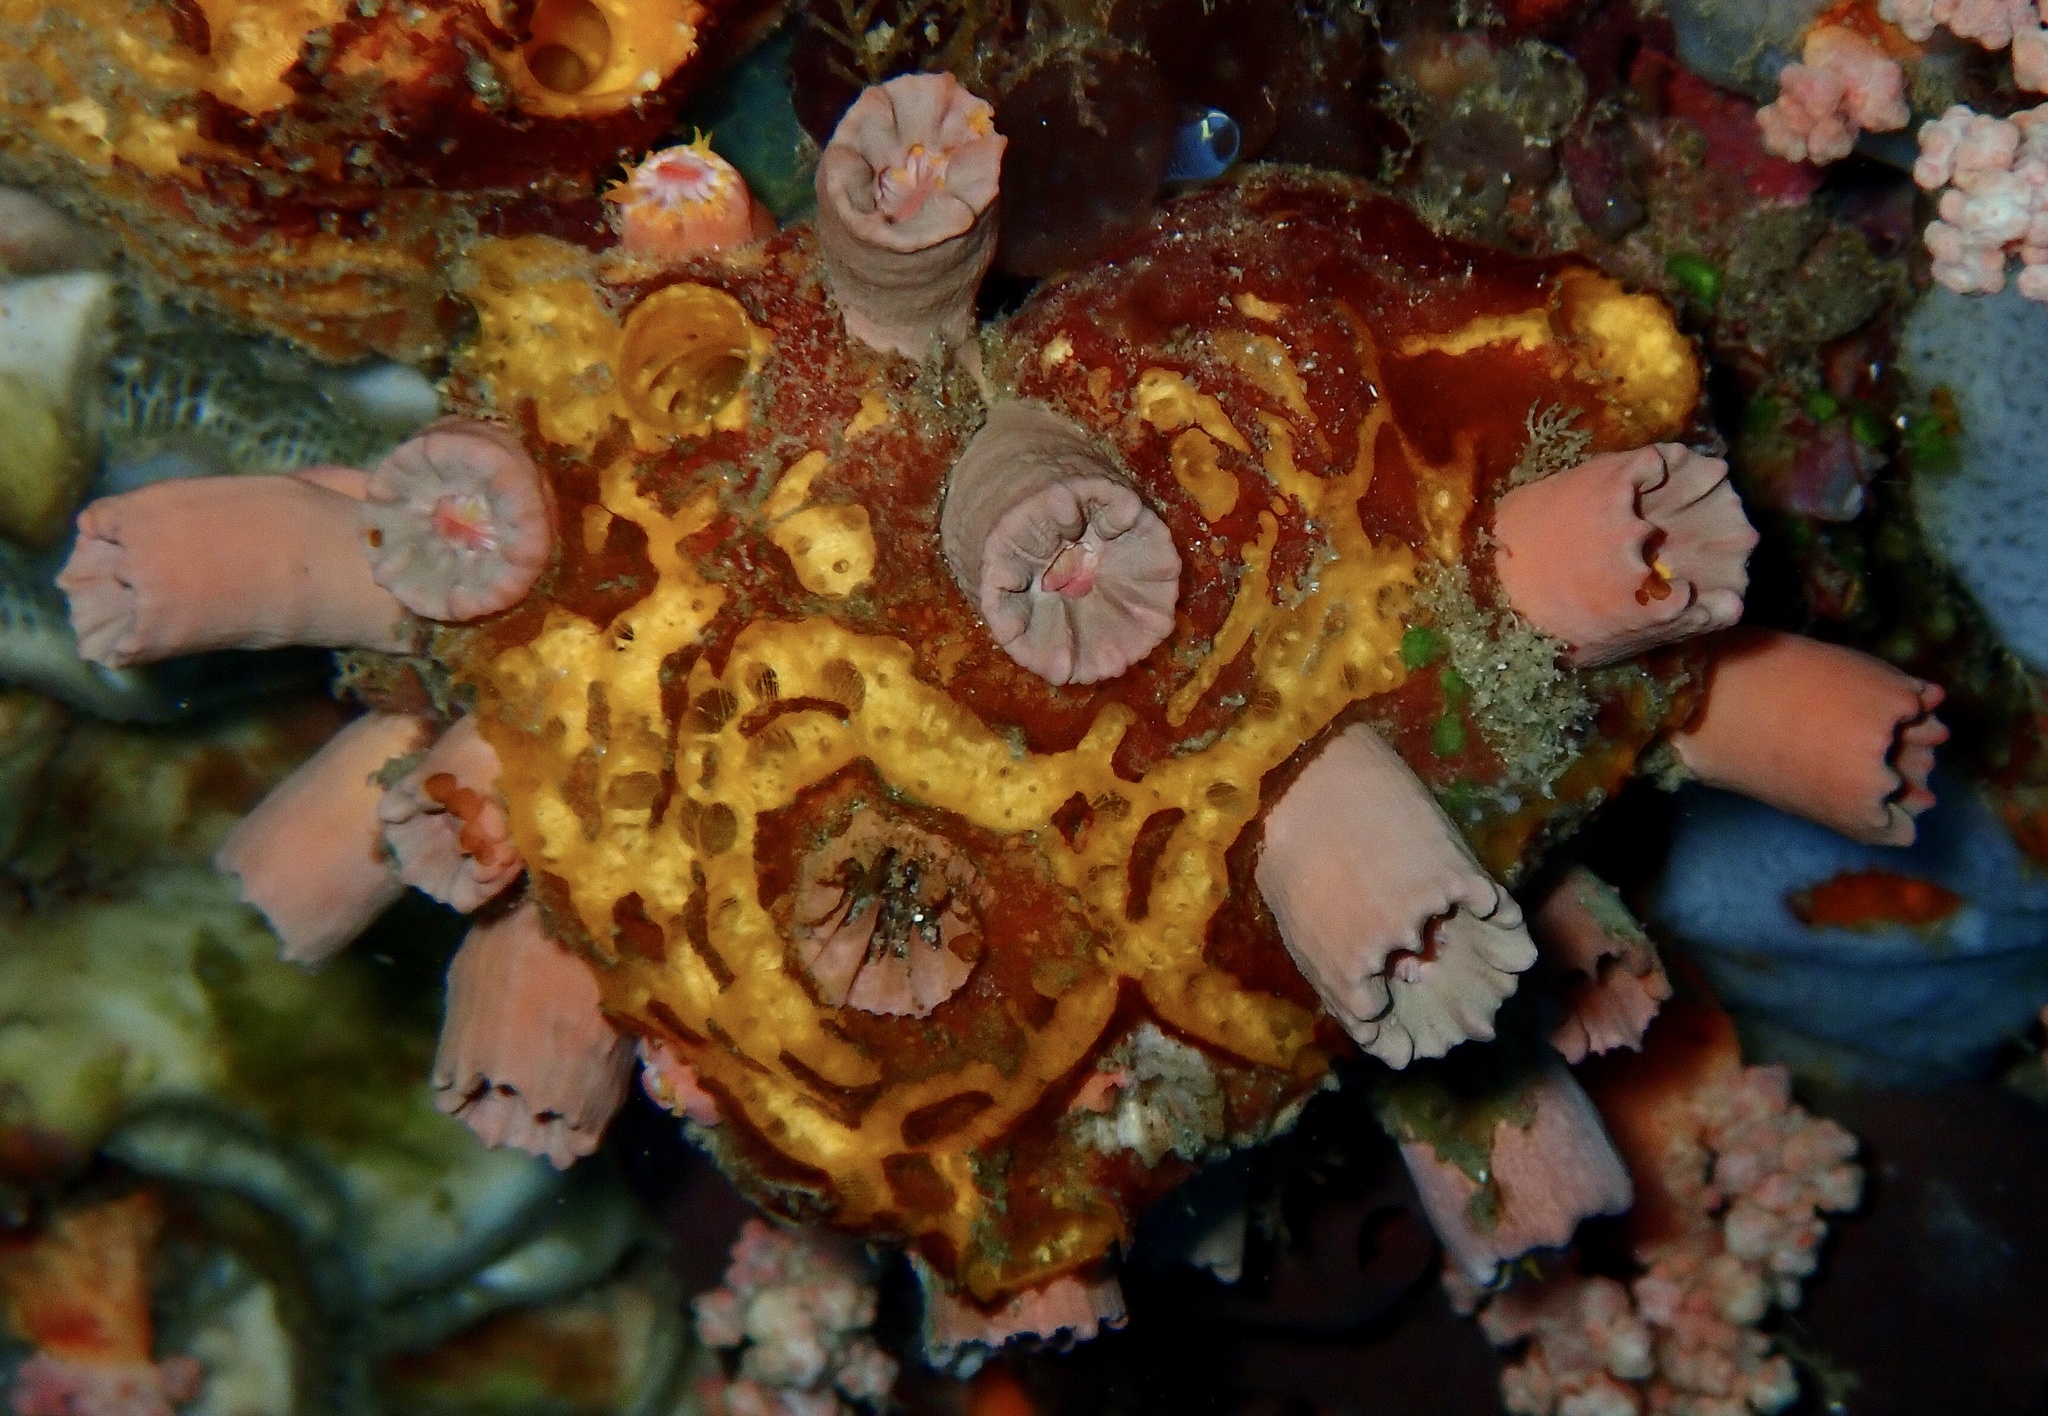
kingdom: Animalia
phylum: Cnidaria
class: Anthozoa
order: Scleractinia
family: Dendrophylliidae
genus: Cladopsammia
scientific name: Cladopsammia gracilis
